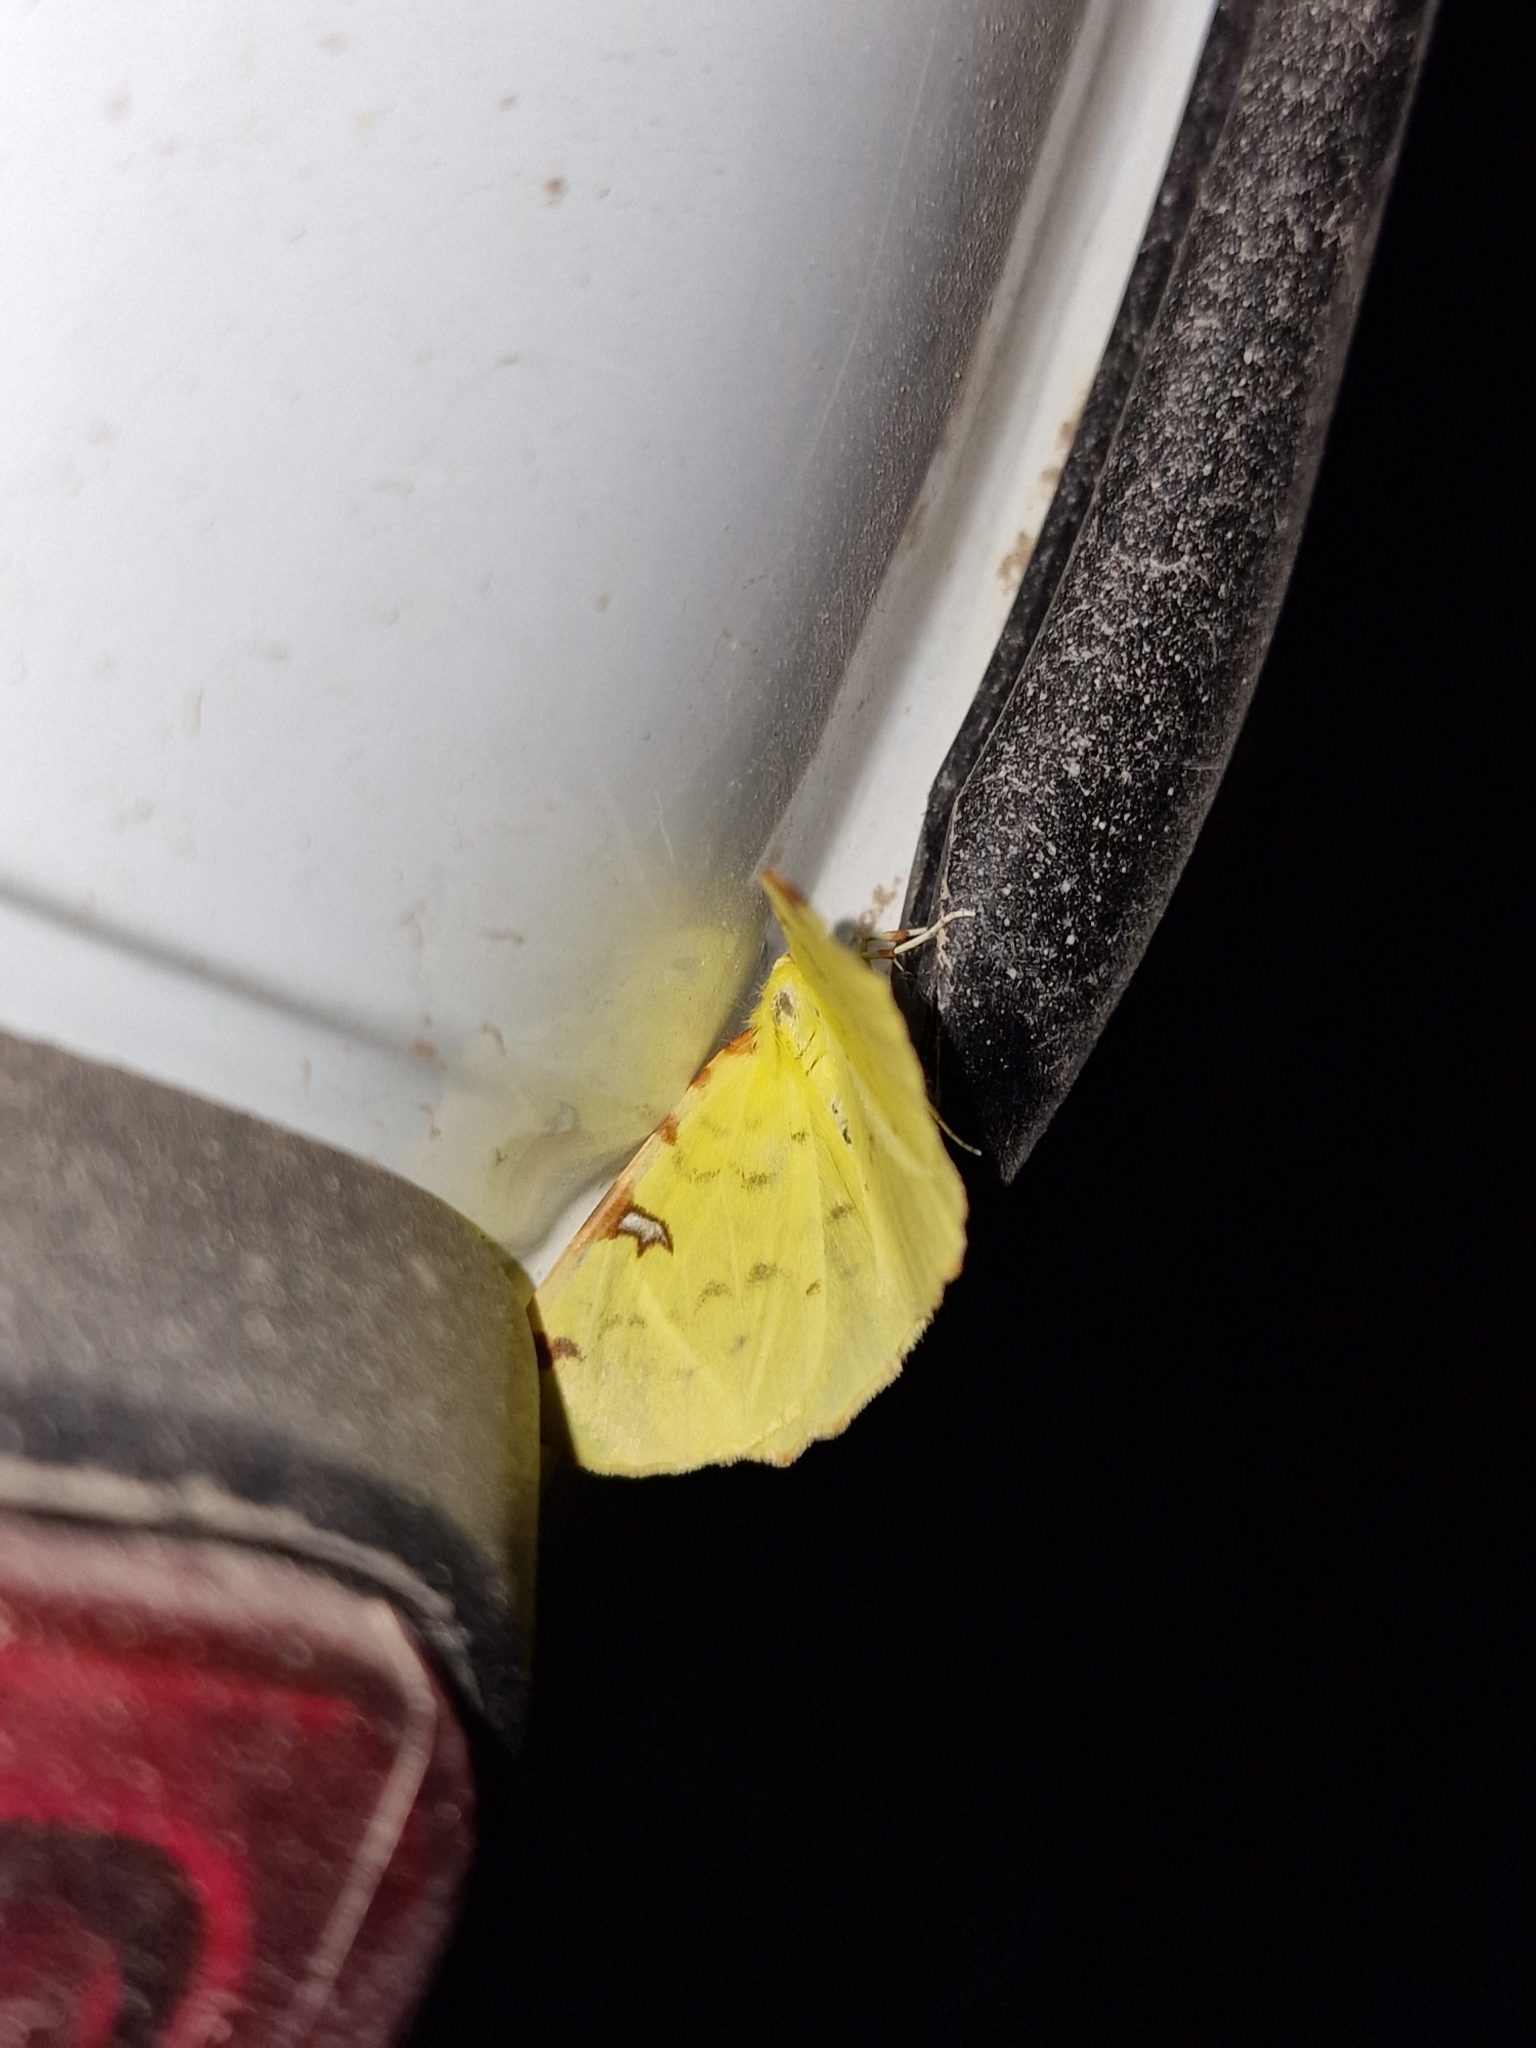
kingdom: Animalia
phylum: Arthropoda
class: Insecta
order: Lepidoptera
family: Geometridae
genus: Opisthograptis
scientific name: Opisthograptis luteolata
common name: Brimstone moth
